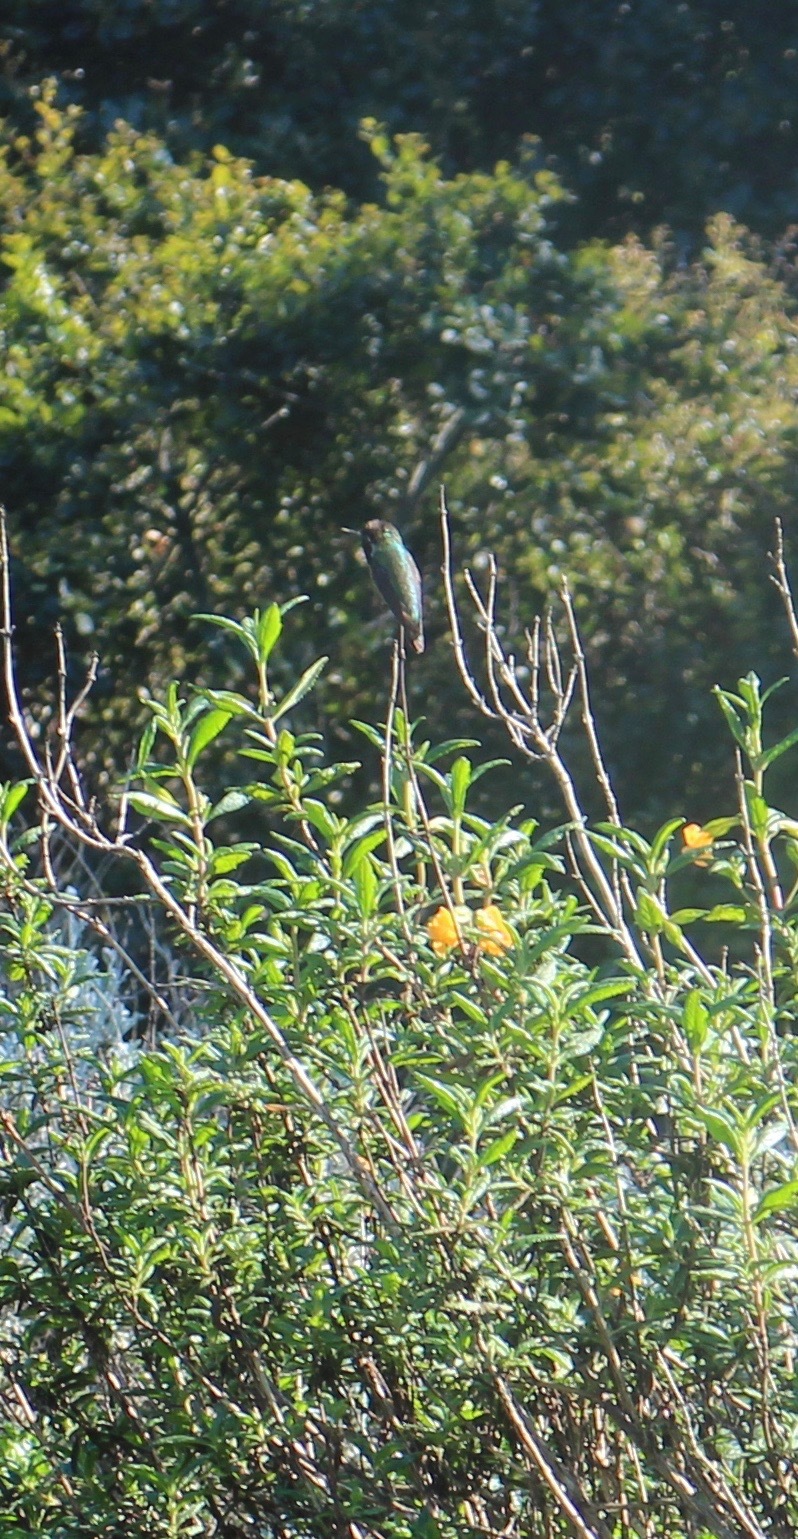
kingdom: Animalia
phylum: Chordata
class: Aves
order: Apodiformes
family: Trochilidae
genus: Calypte
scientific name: Calypte anna
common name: Anna's hummingbird
